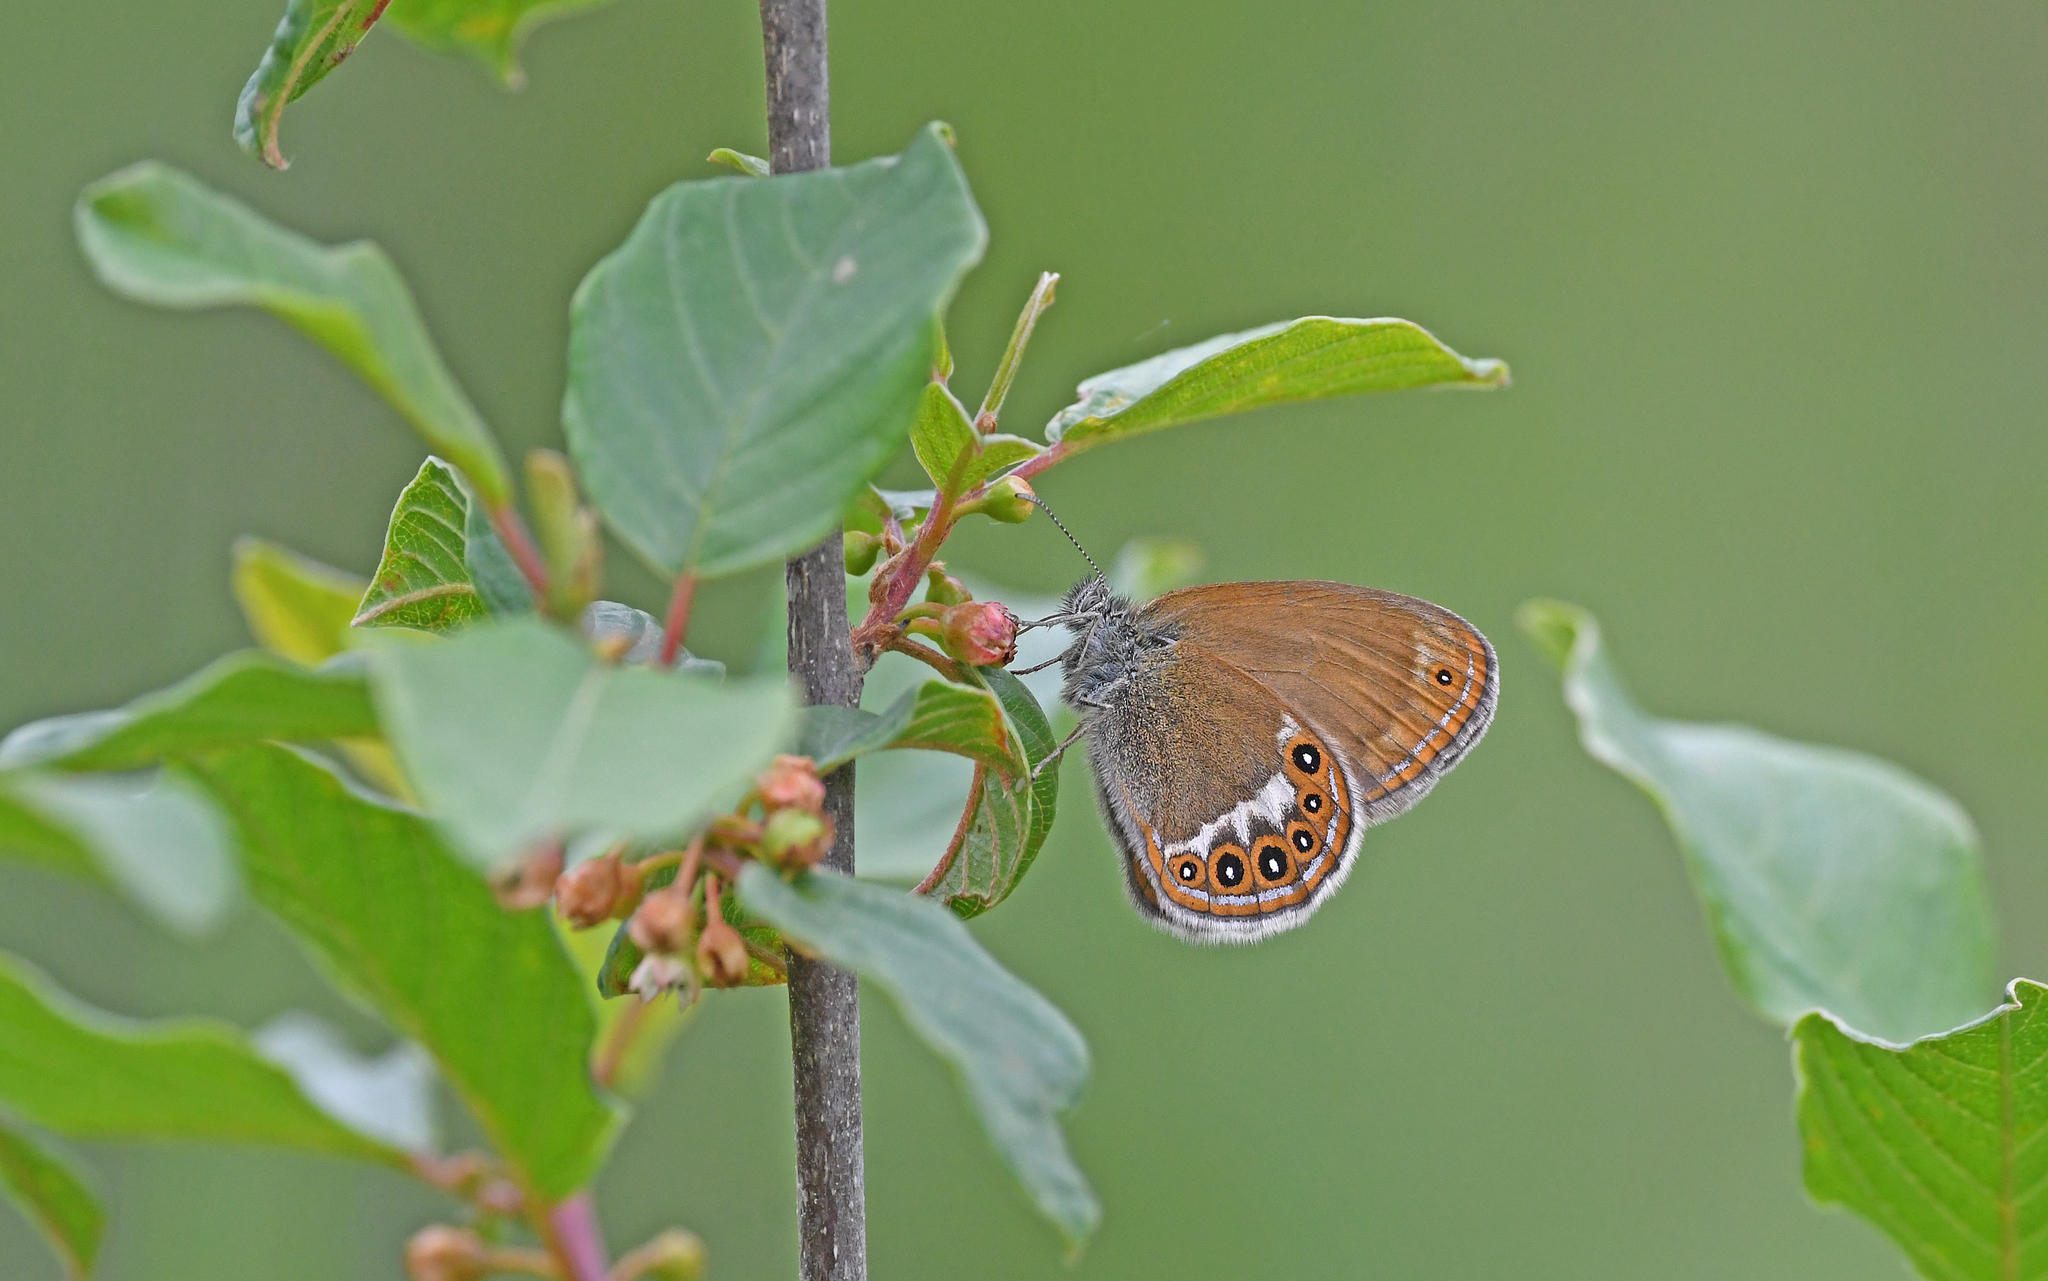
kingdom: Animalia
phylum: Arthropoda
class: Insecta
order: Lepidoptera
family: Nymphalidae
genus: Coenonympha
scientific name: Coenonympha hero
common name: Scarce heath
